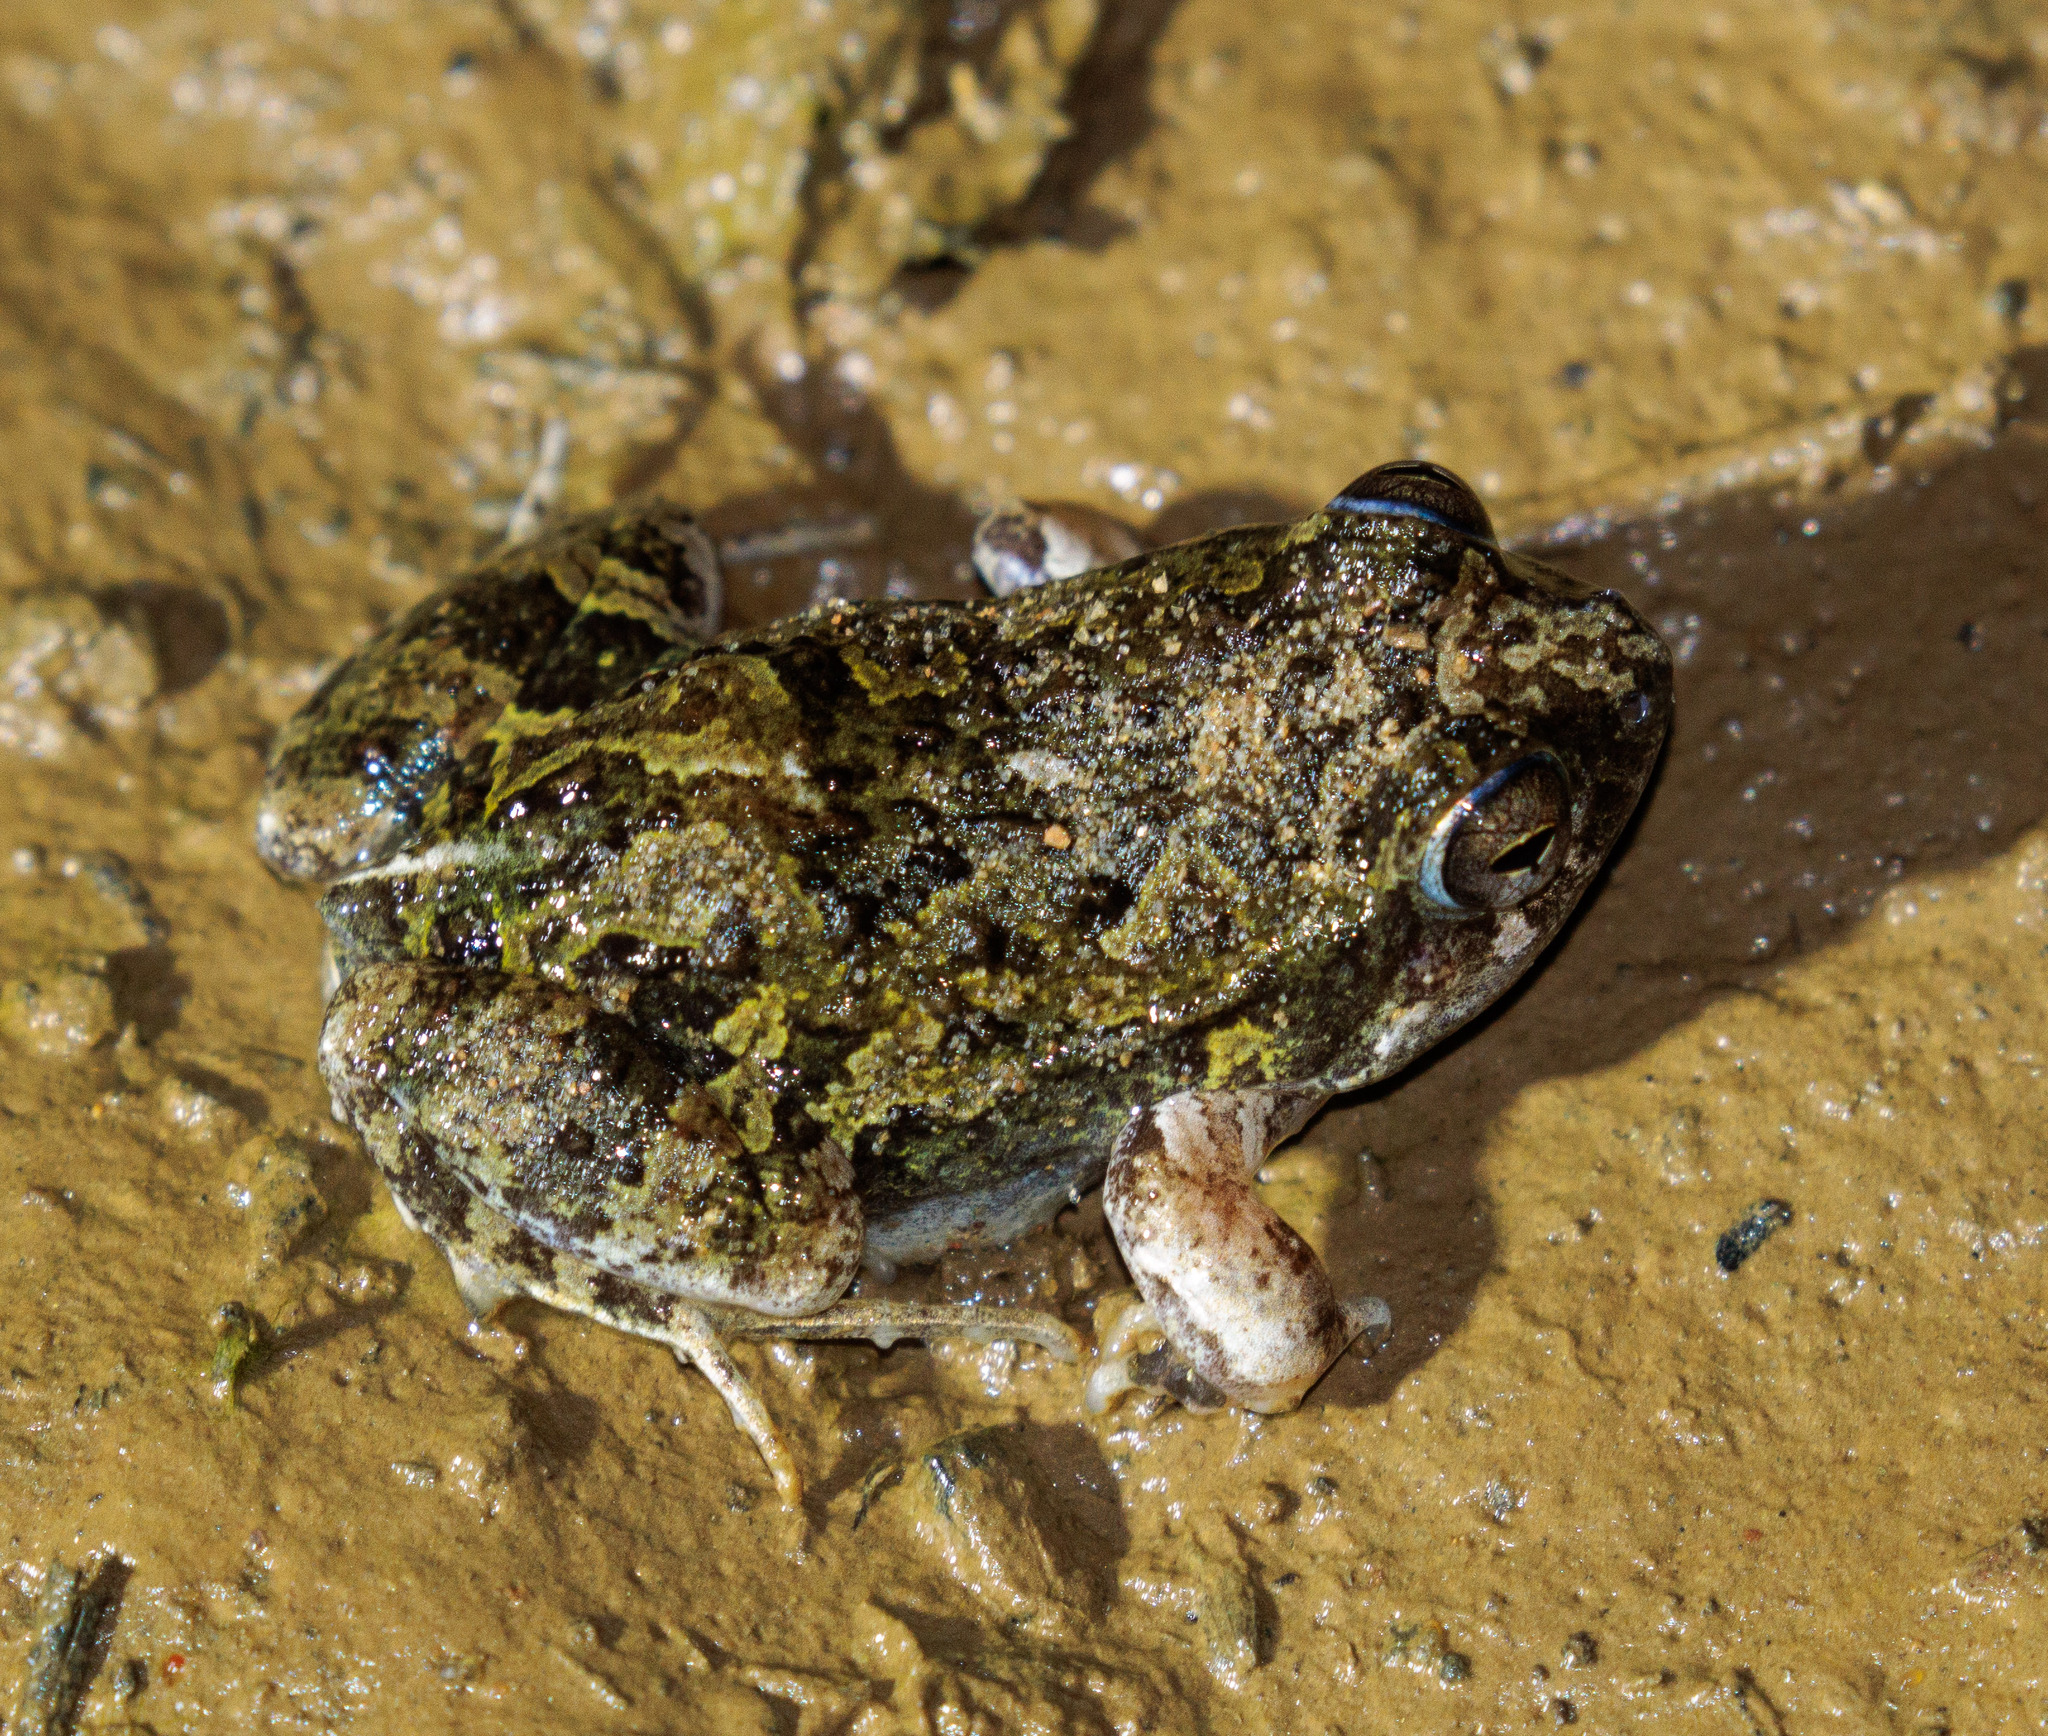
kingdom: Animalia
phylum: Chordata
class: Amphibia
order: Anura
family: Leptodactylidae
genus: Pleurodema
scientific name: Pleurodema diplolister
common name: Peters' four-eyed frog
